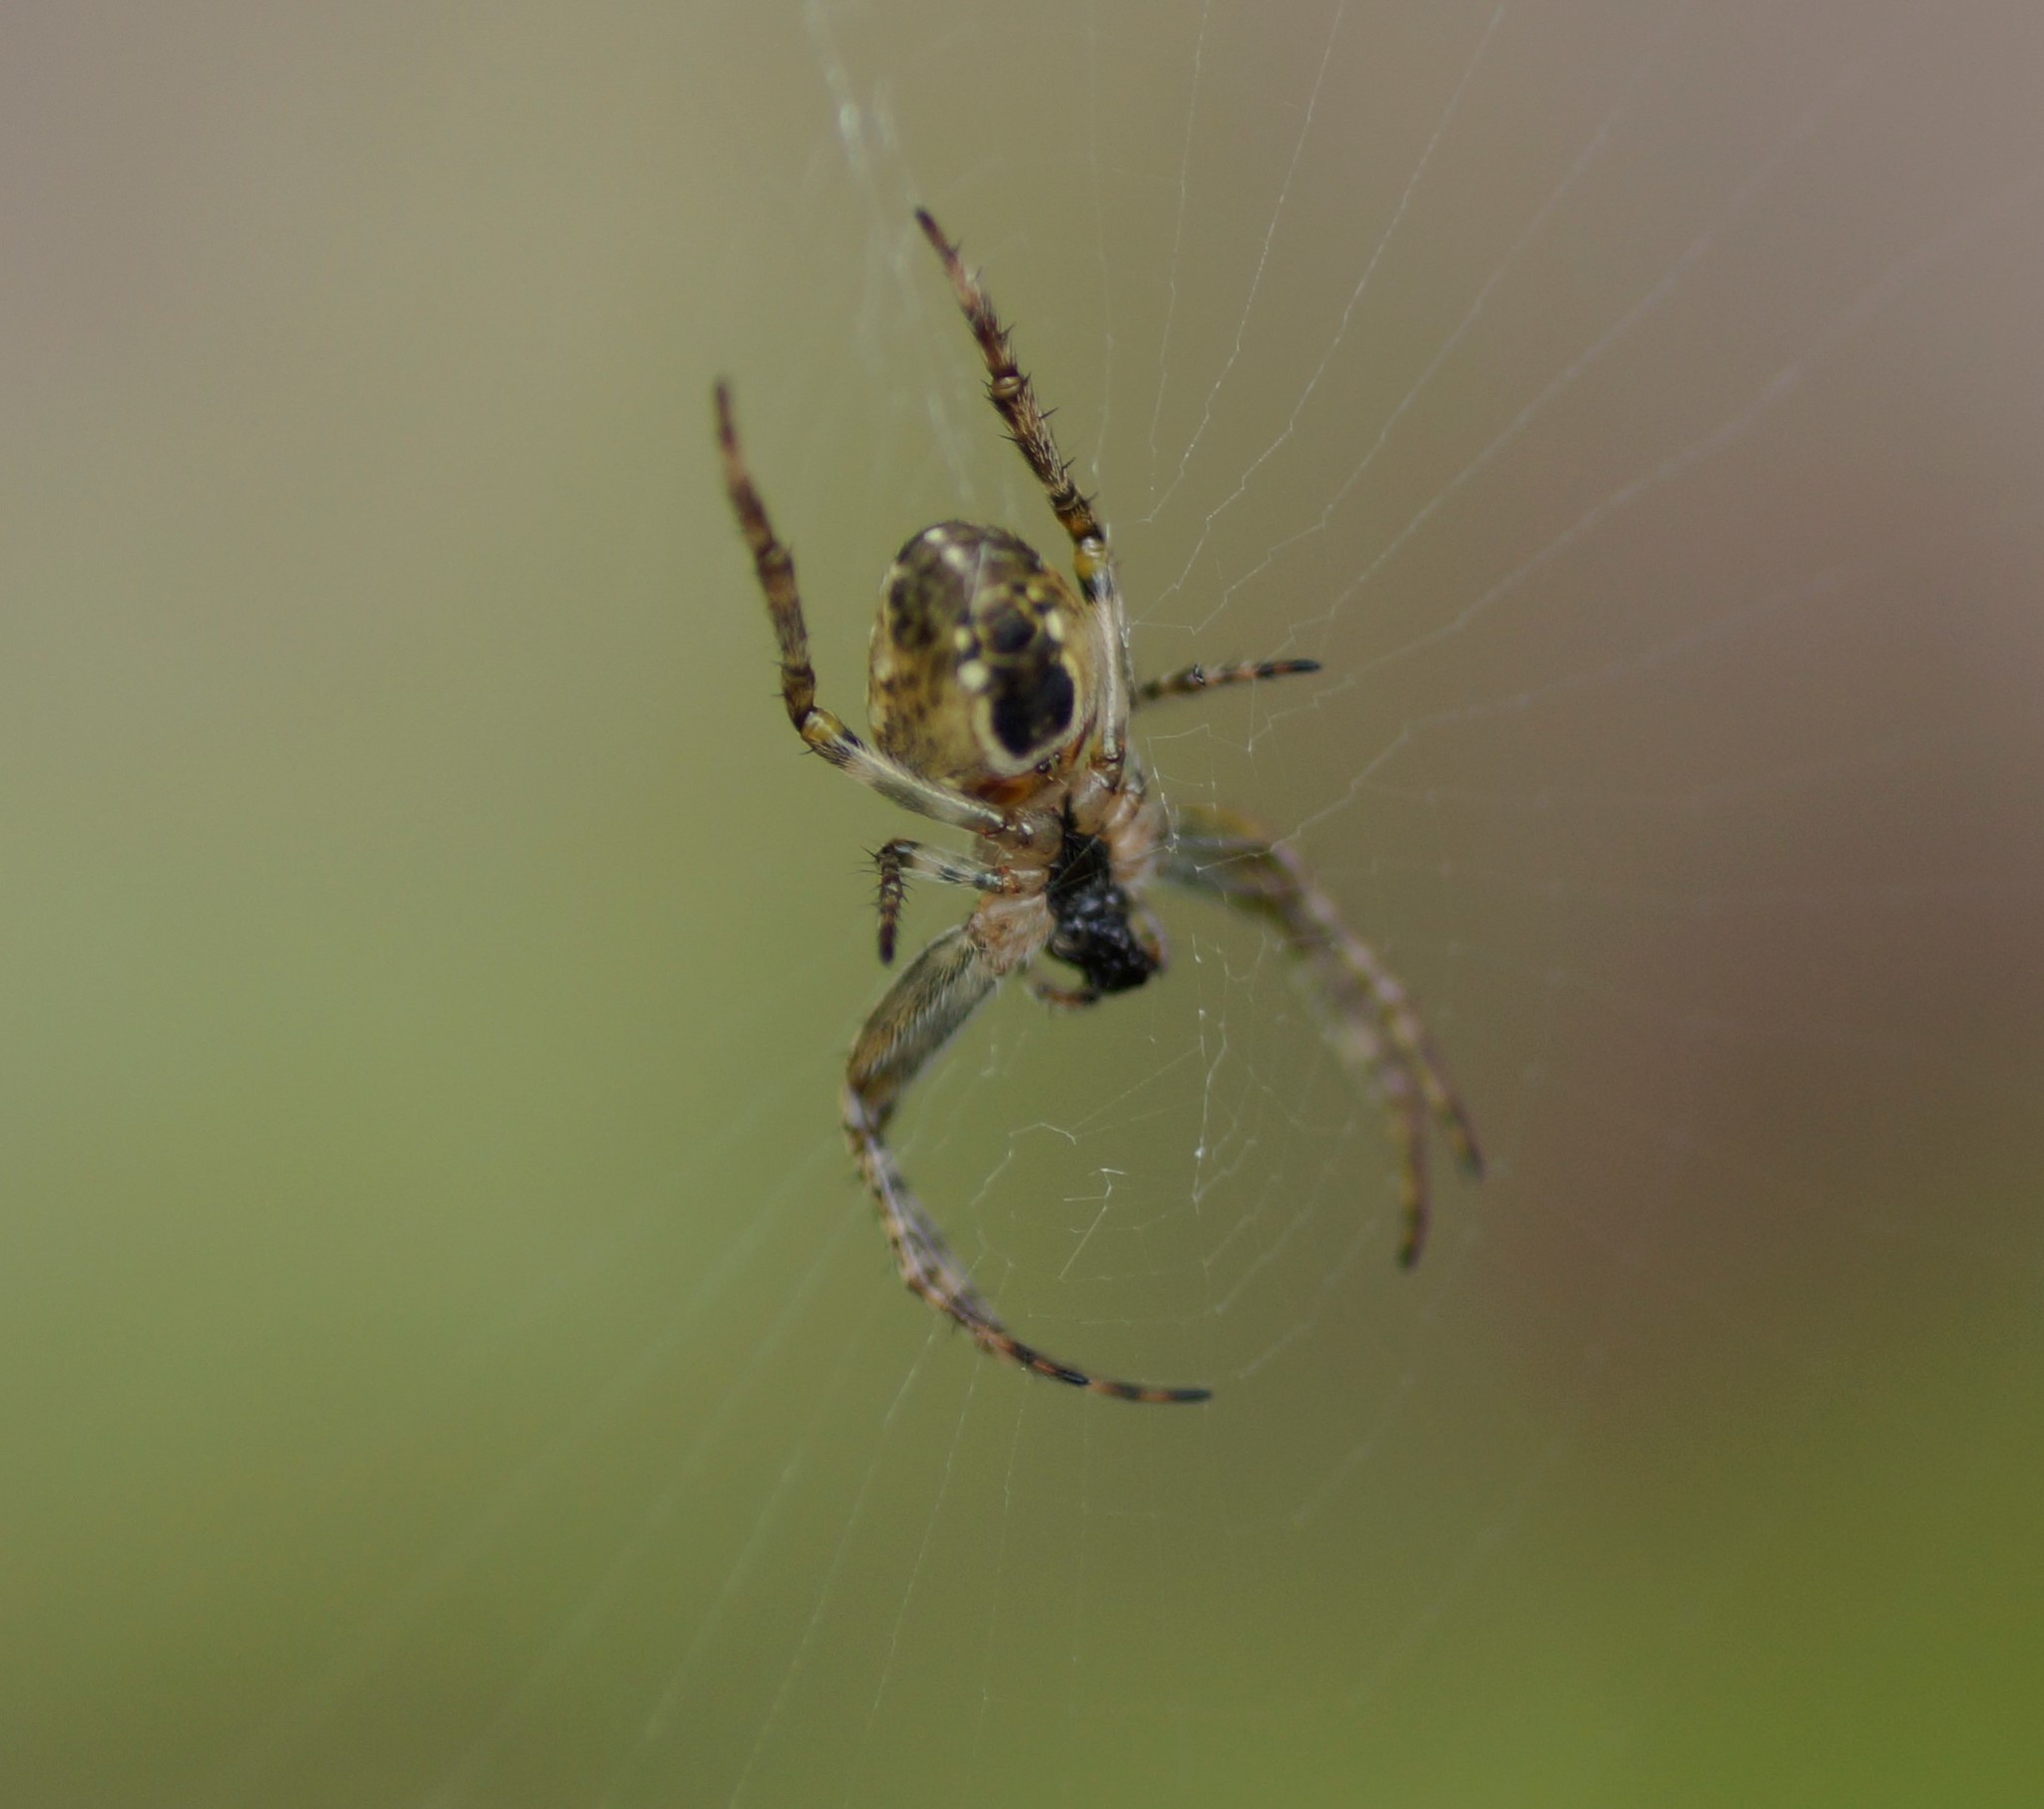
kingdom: Animalia
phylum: Arthropoda
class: Arachnida
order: Araneae
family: Araneidae
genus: Plebs
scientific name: Plebs eburnus
